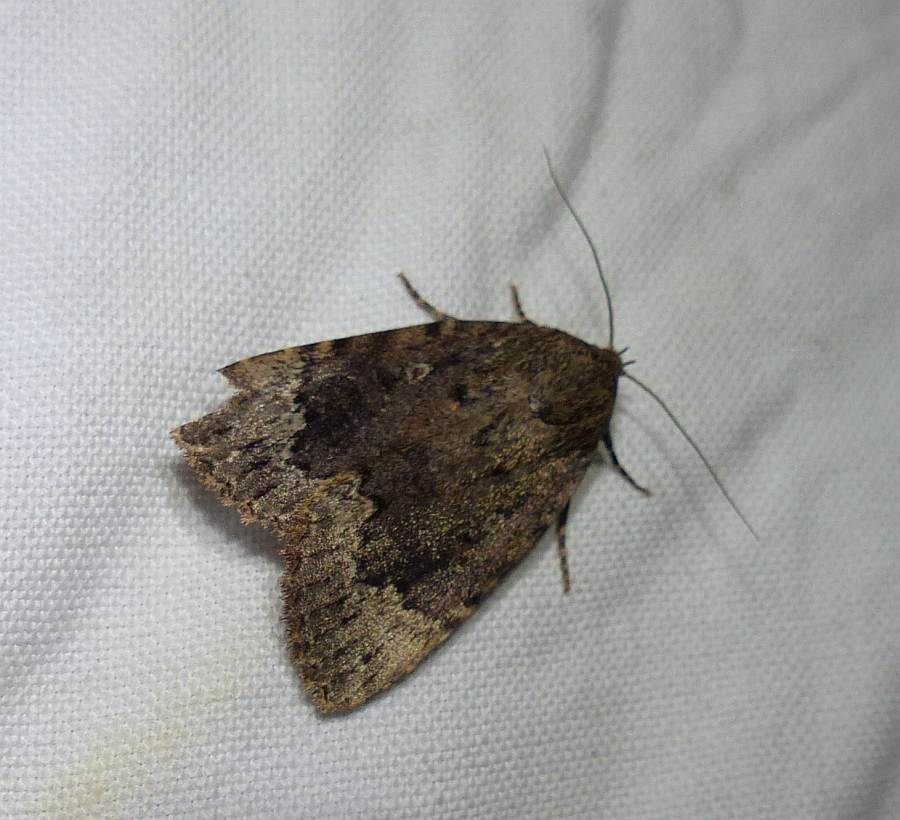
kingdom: Animalia
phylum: Arthropoda
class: Insecta
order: Lepidoptera
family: Noctuidae
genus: Amphipyra
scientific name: Amphipyra pyramidoides
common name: American copper underwing
